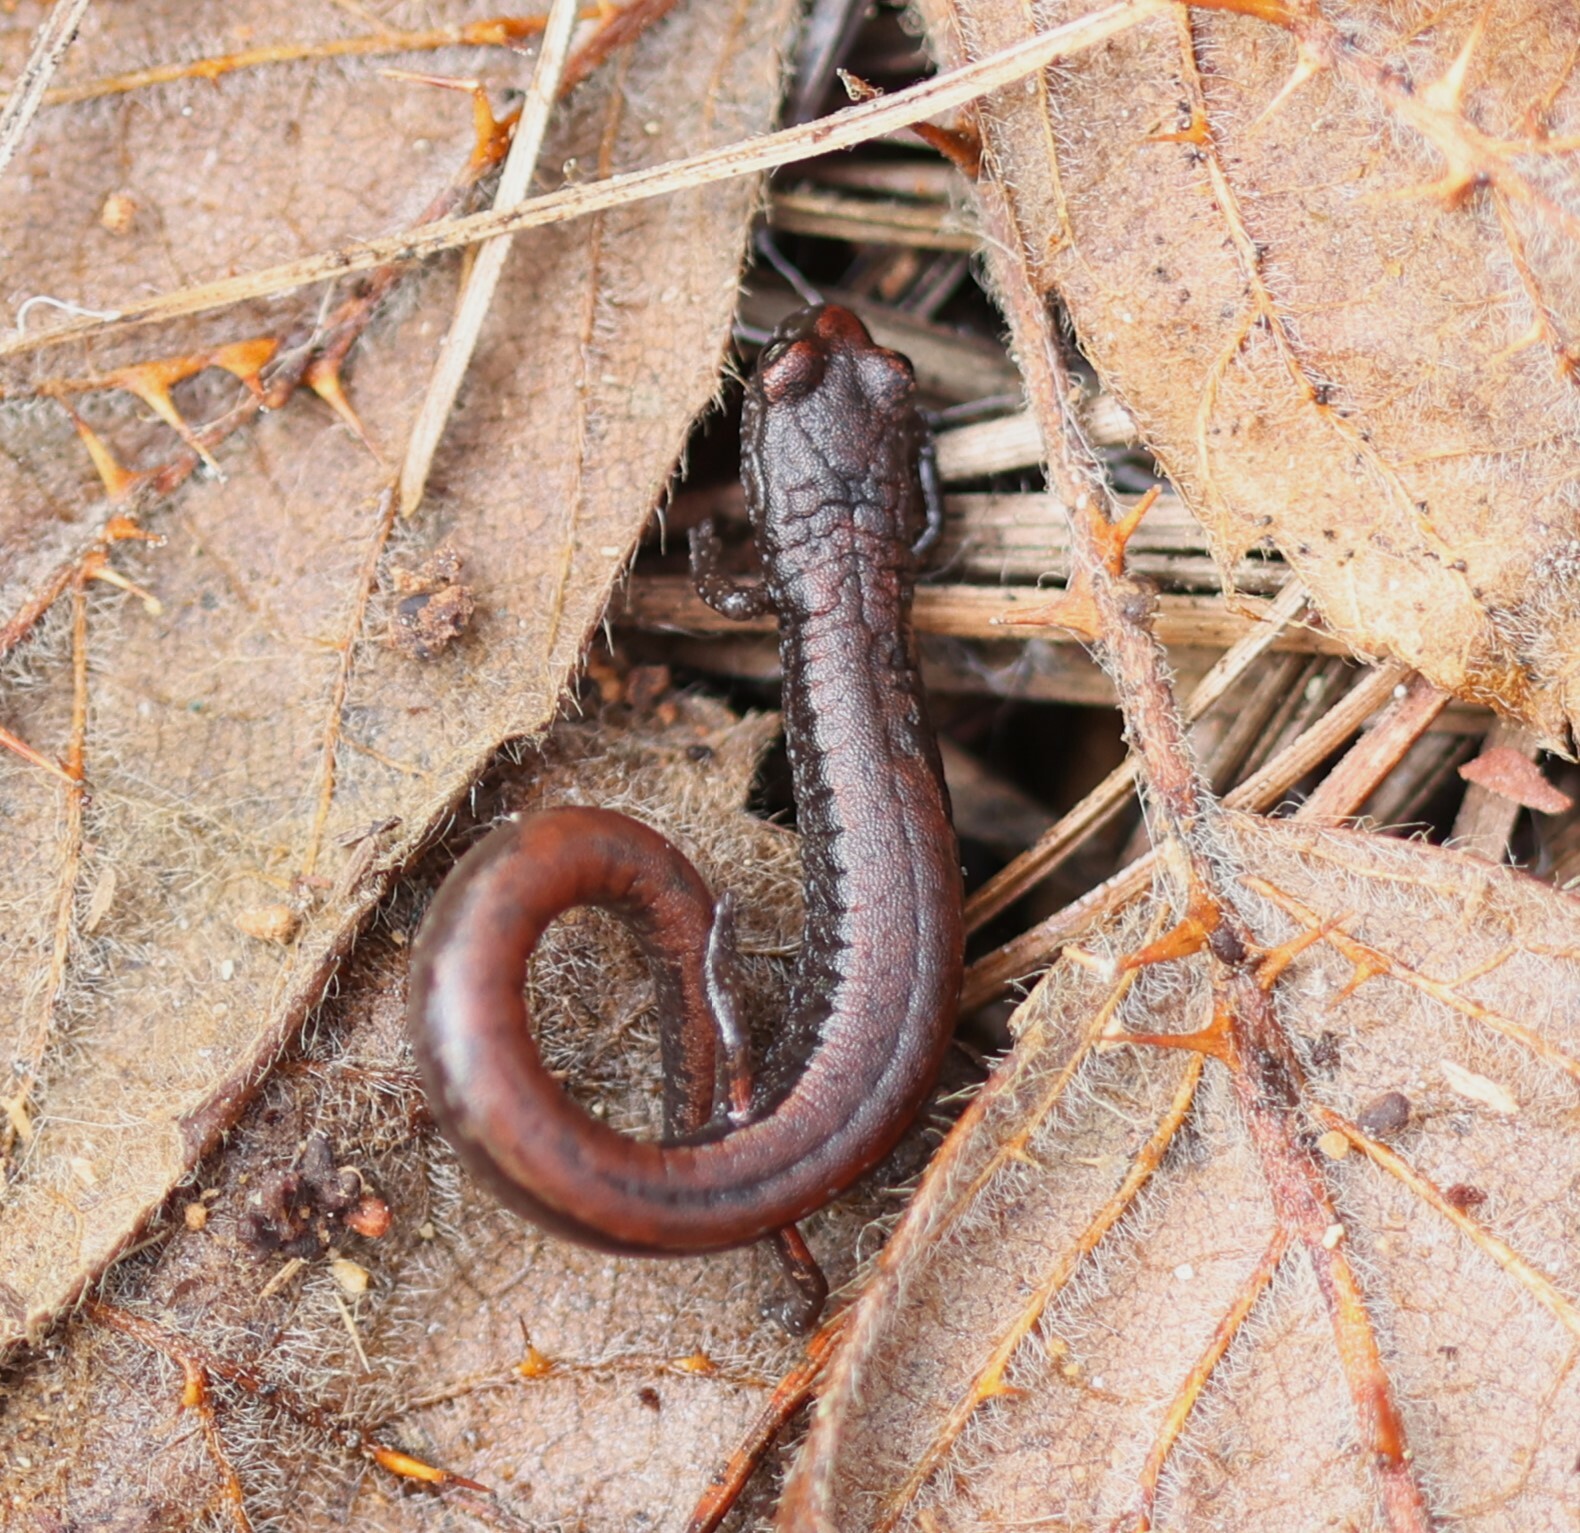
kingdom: Animalia
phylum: Chordata
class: Amphibia
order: Caudata
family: Plethodontidae
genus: Batrachoseps
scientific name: Batrachoseps luciae
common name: Santa lucia mountains slender salamander
